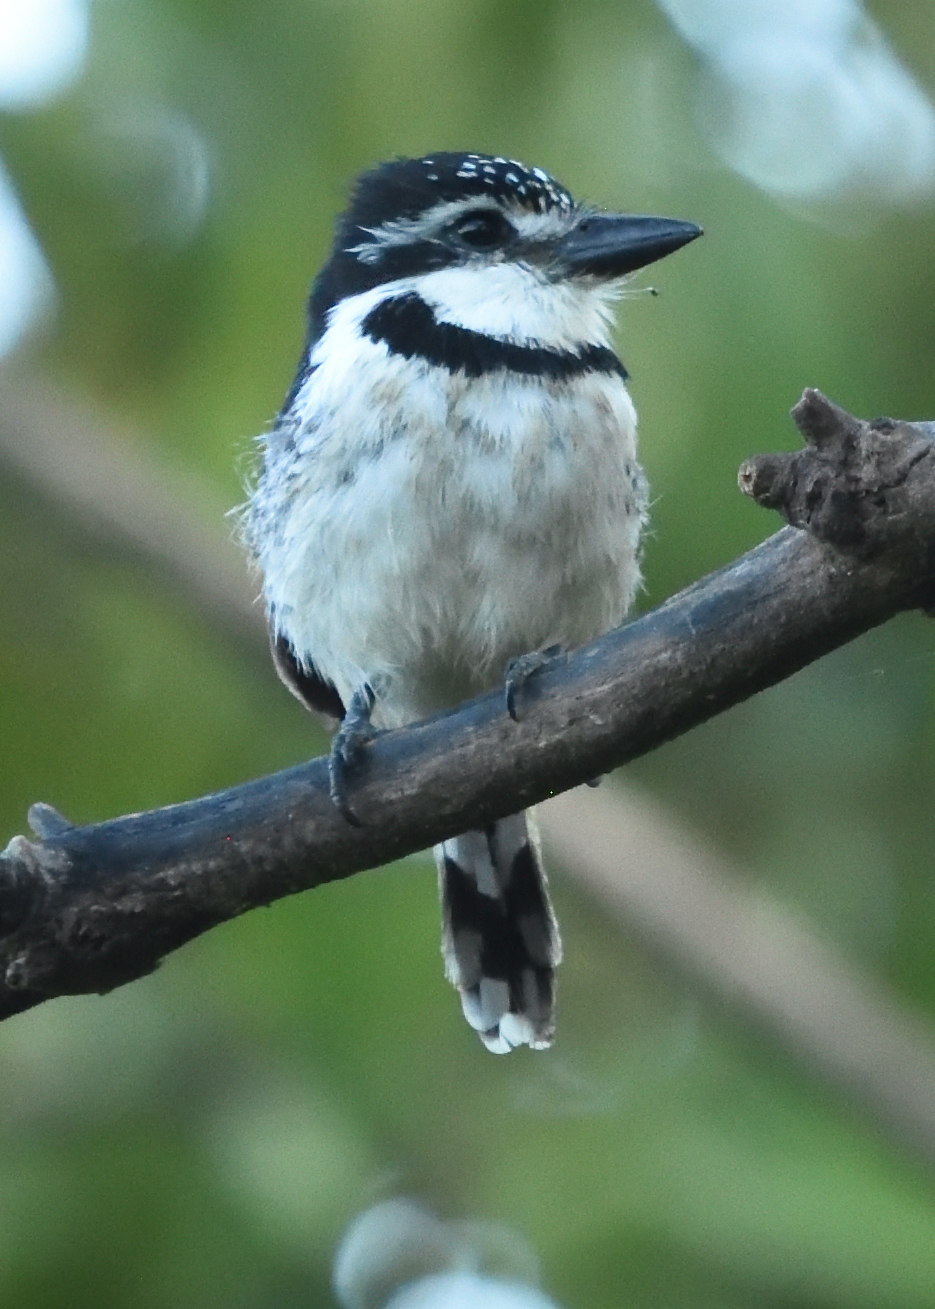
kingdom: Animalia
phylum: Chordata
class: Aves
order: Piciformes
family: Bucconidae
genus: Notharchus
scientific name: Notharchus tectus
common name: Pied puffbird
